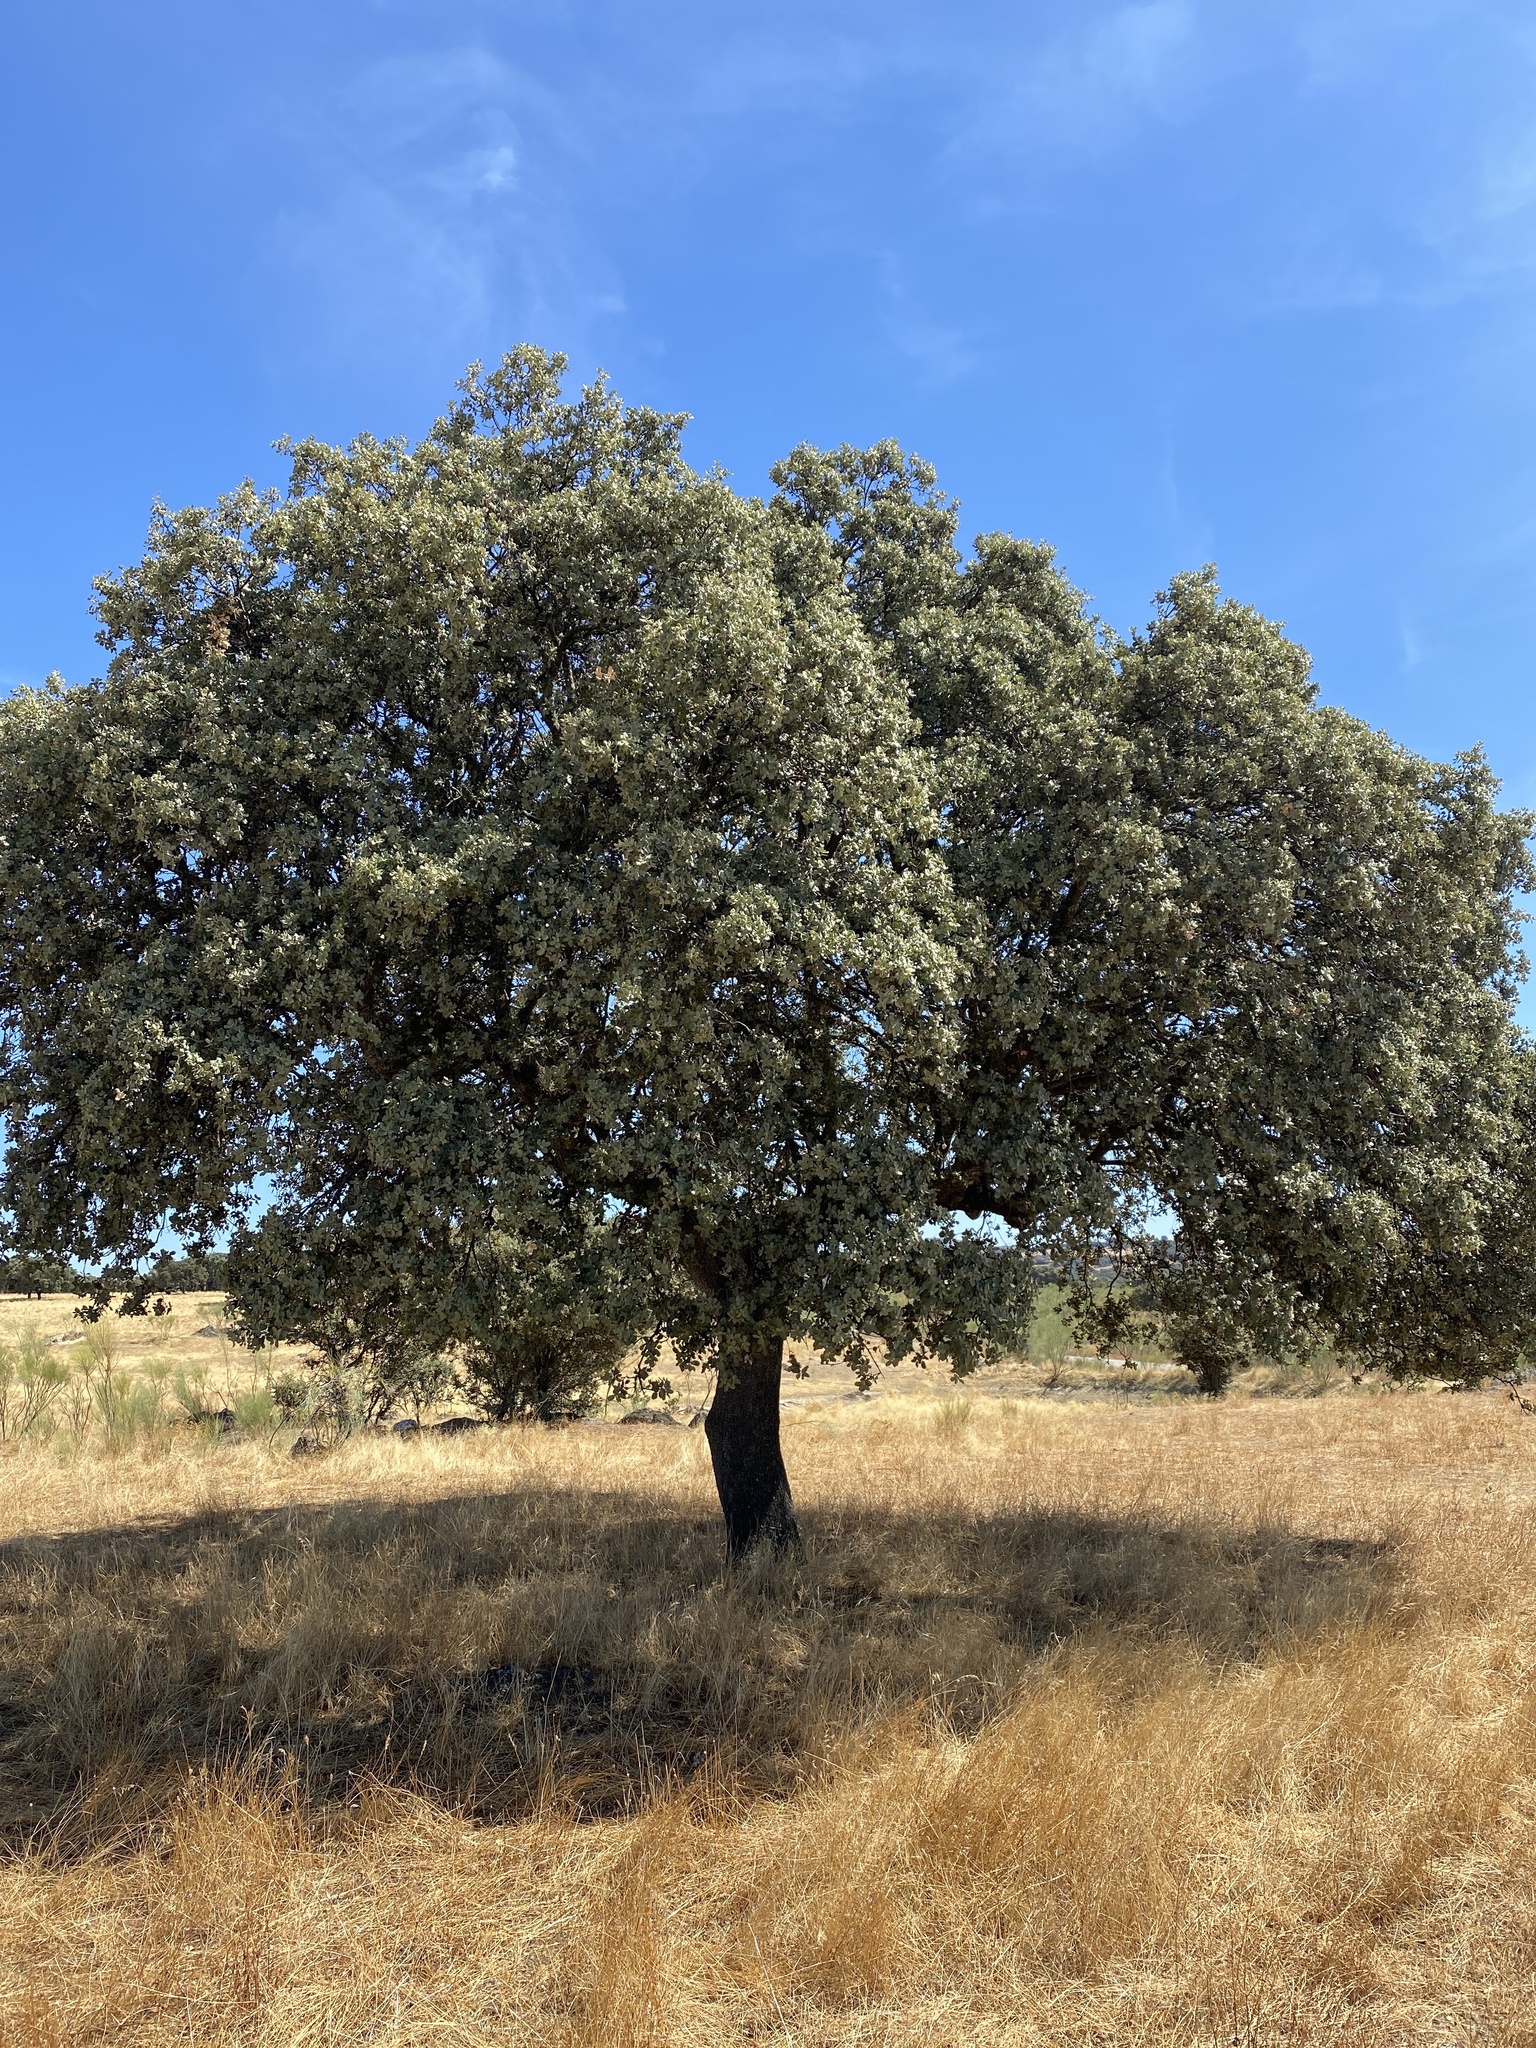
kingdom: Plantae
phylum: Tracheophyta
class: Magnoliopsida
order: Fagales
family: Fagaceae
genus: Quercus
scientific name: Quercus rotundifolia
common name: Holm oak
